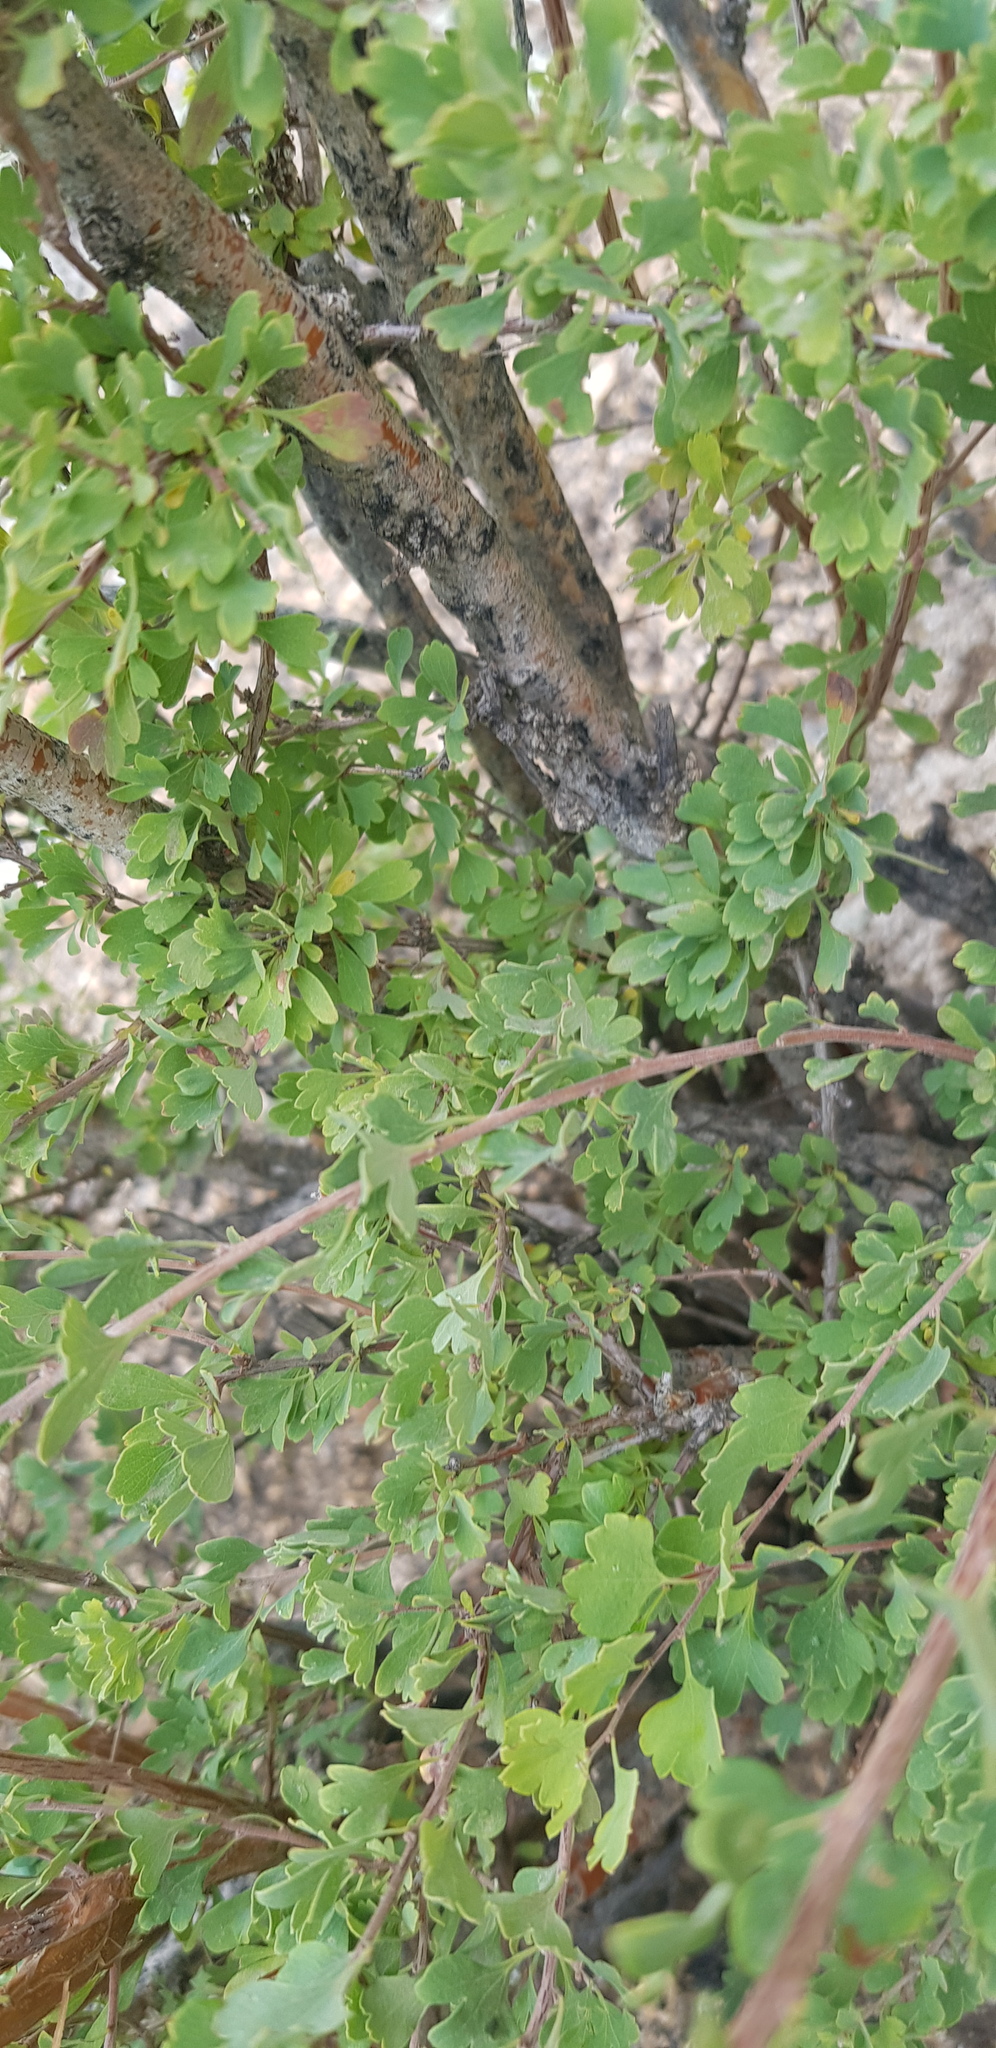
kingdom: Plantae
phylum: Tracheophyta
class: Magnoliopsida
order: Rosales
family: Rosaceae
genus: Spiraea
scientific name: Spiraea aquilegifolia
